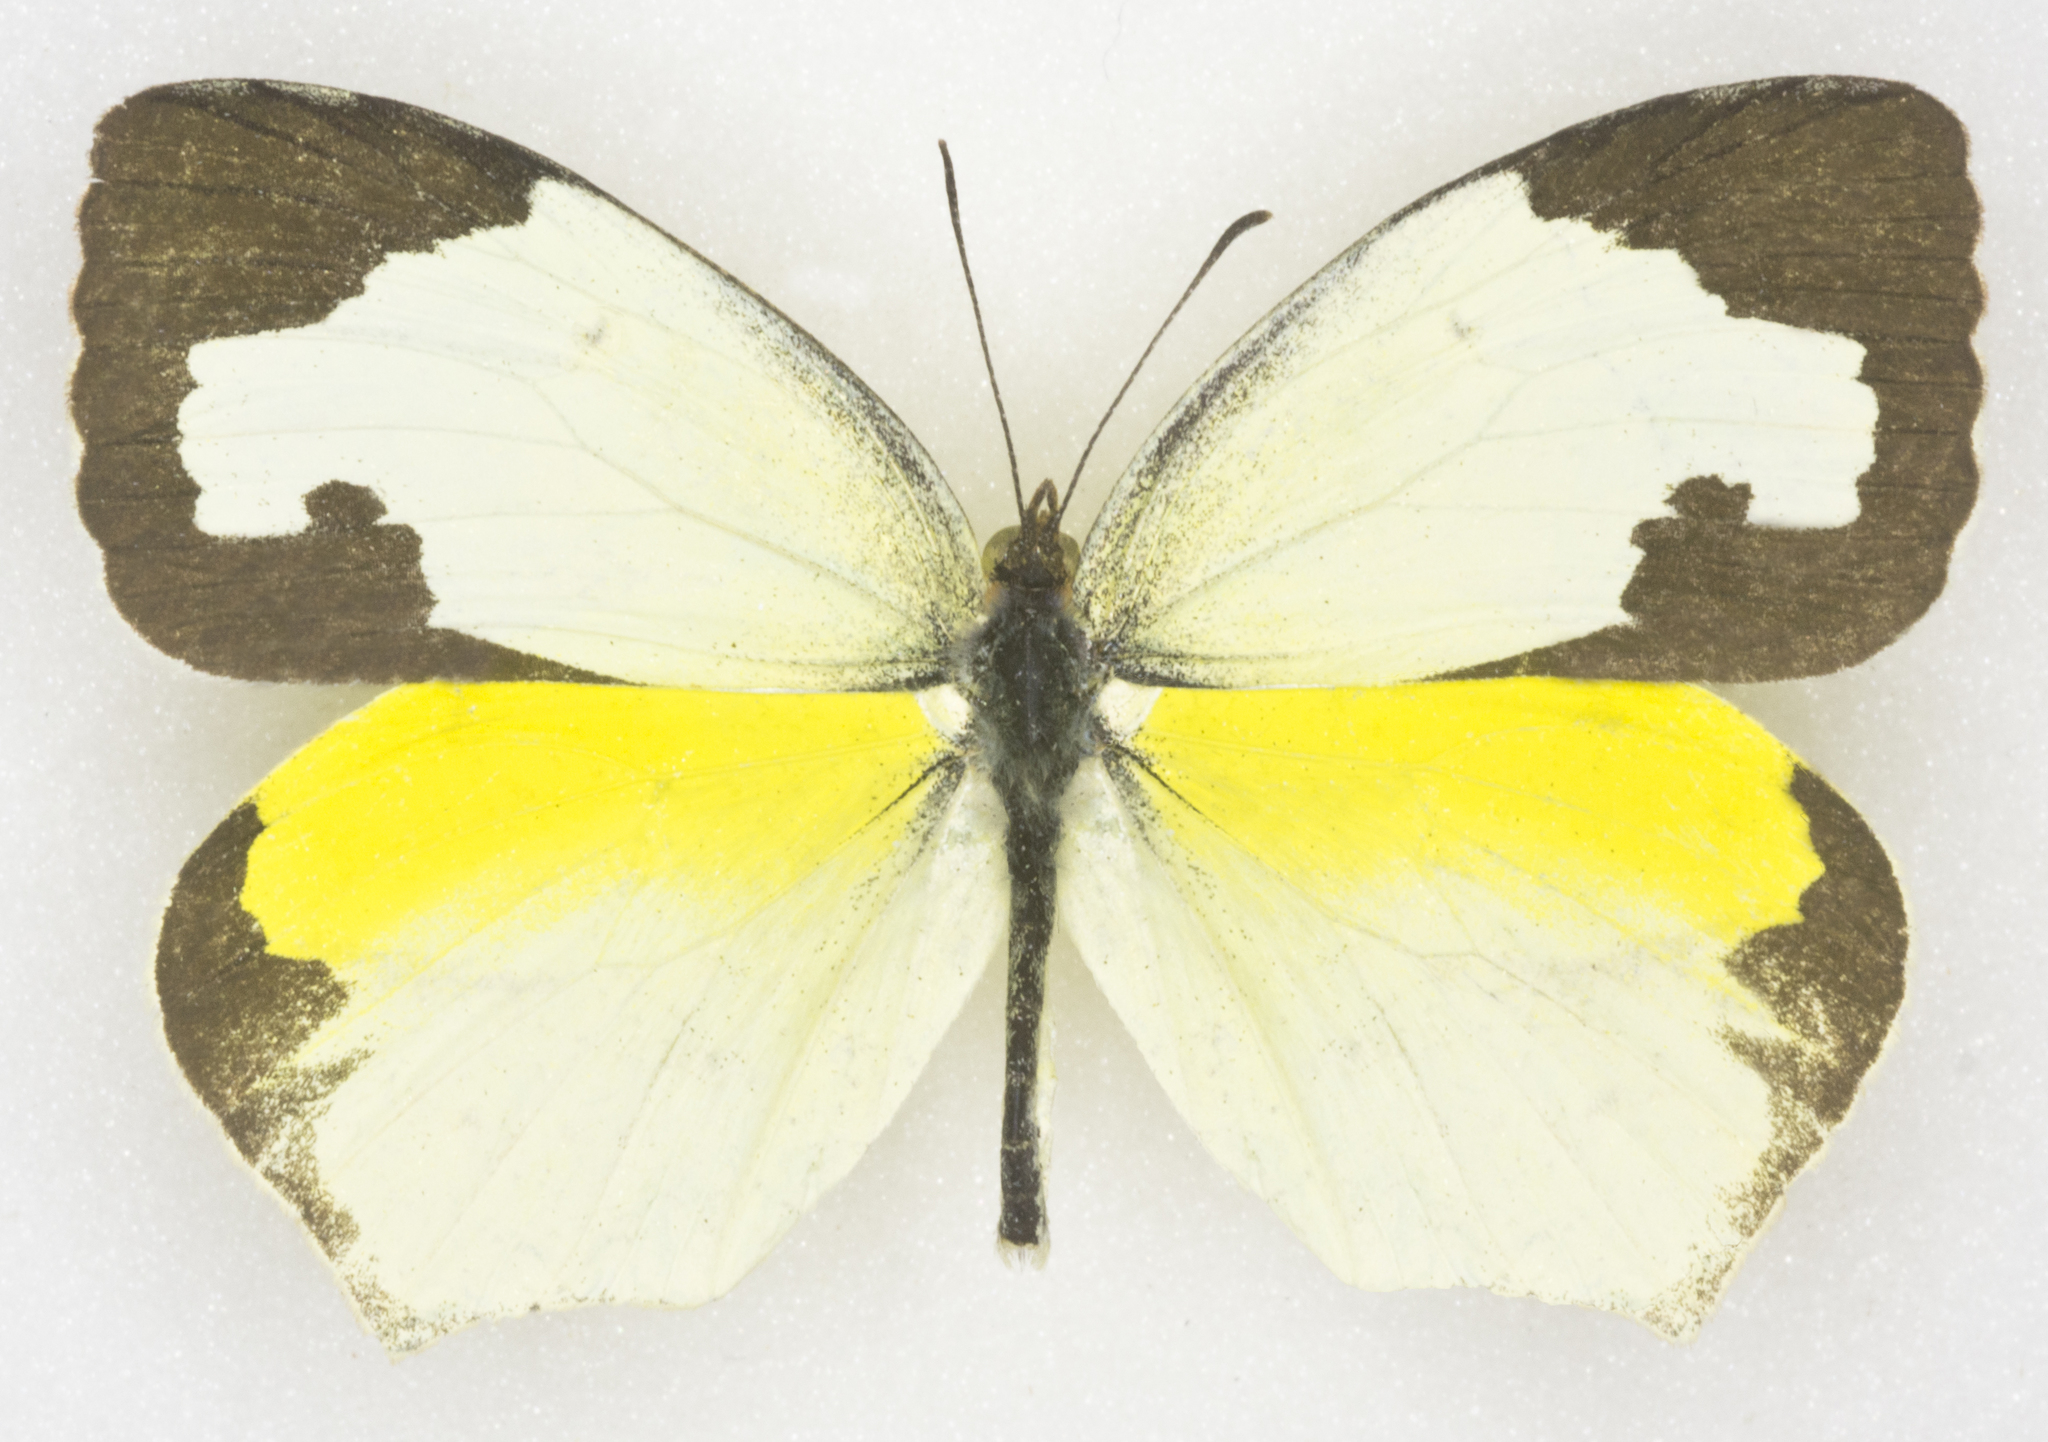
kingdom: Animalia
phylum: Arthropoda
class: Insecta
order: Lepidoptera
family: Pieridae
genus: Abaeis
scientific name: Abaeis mexicana
